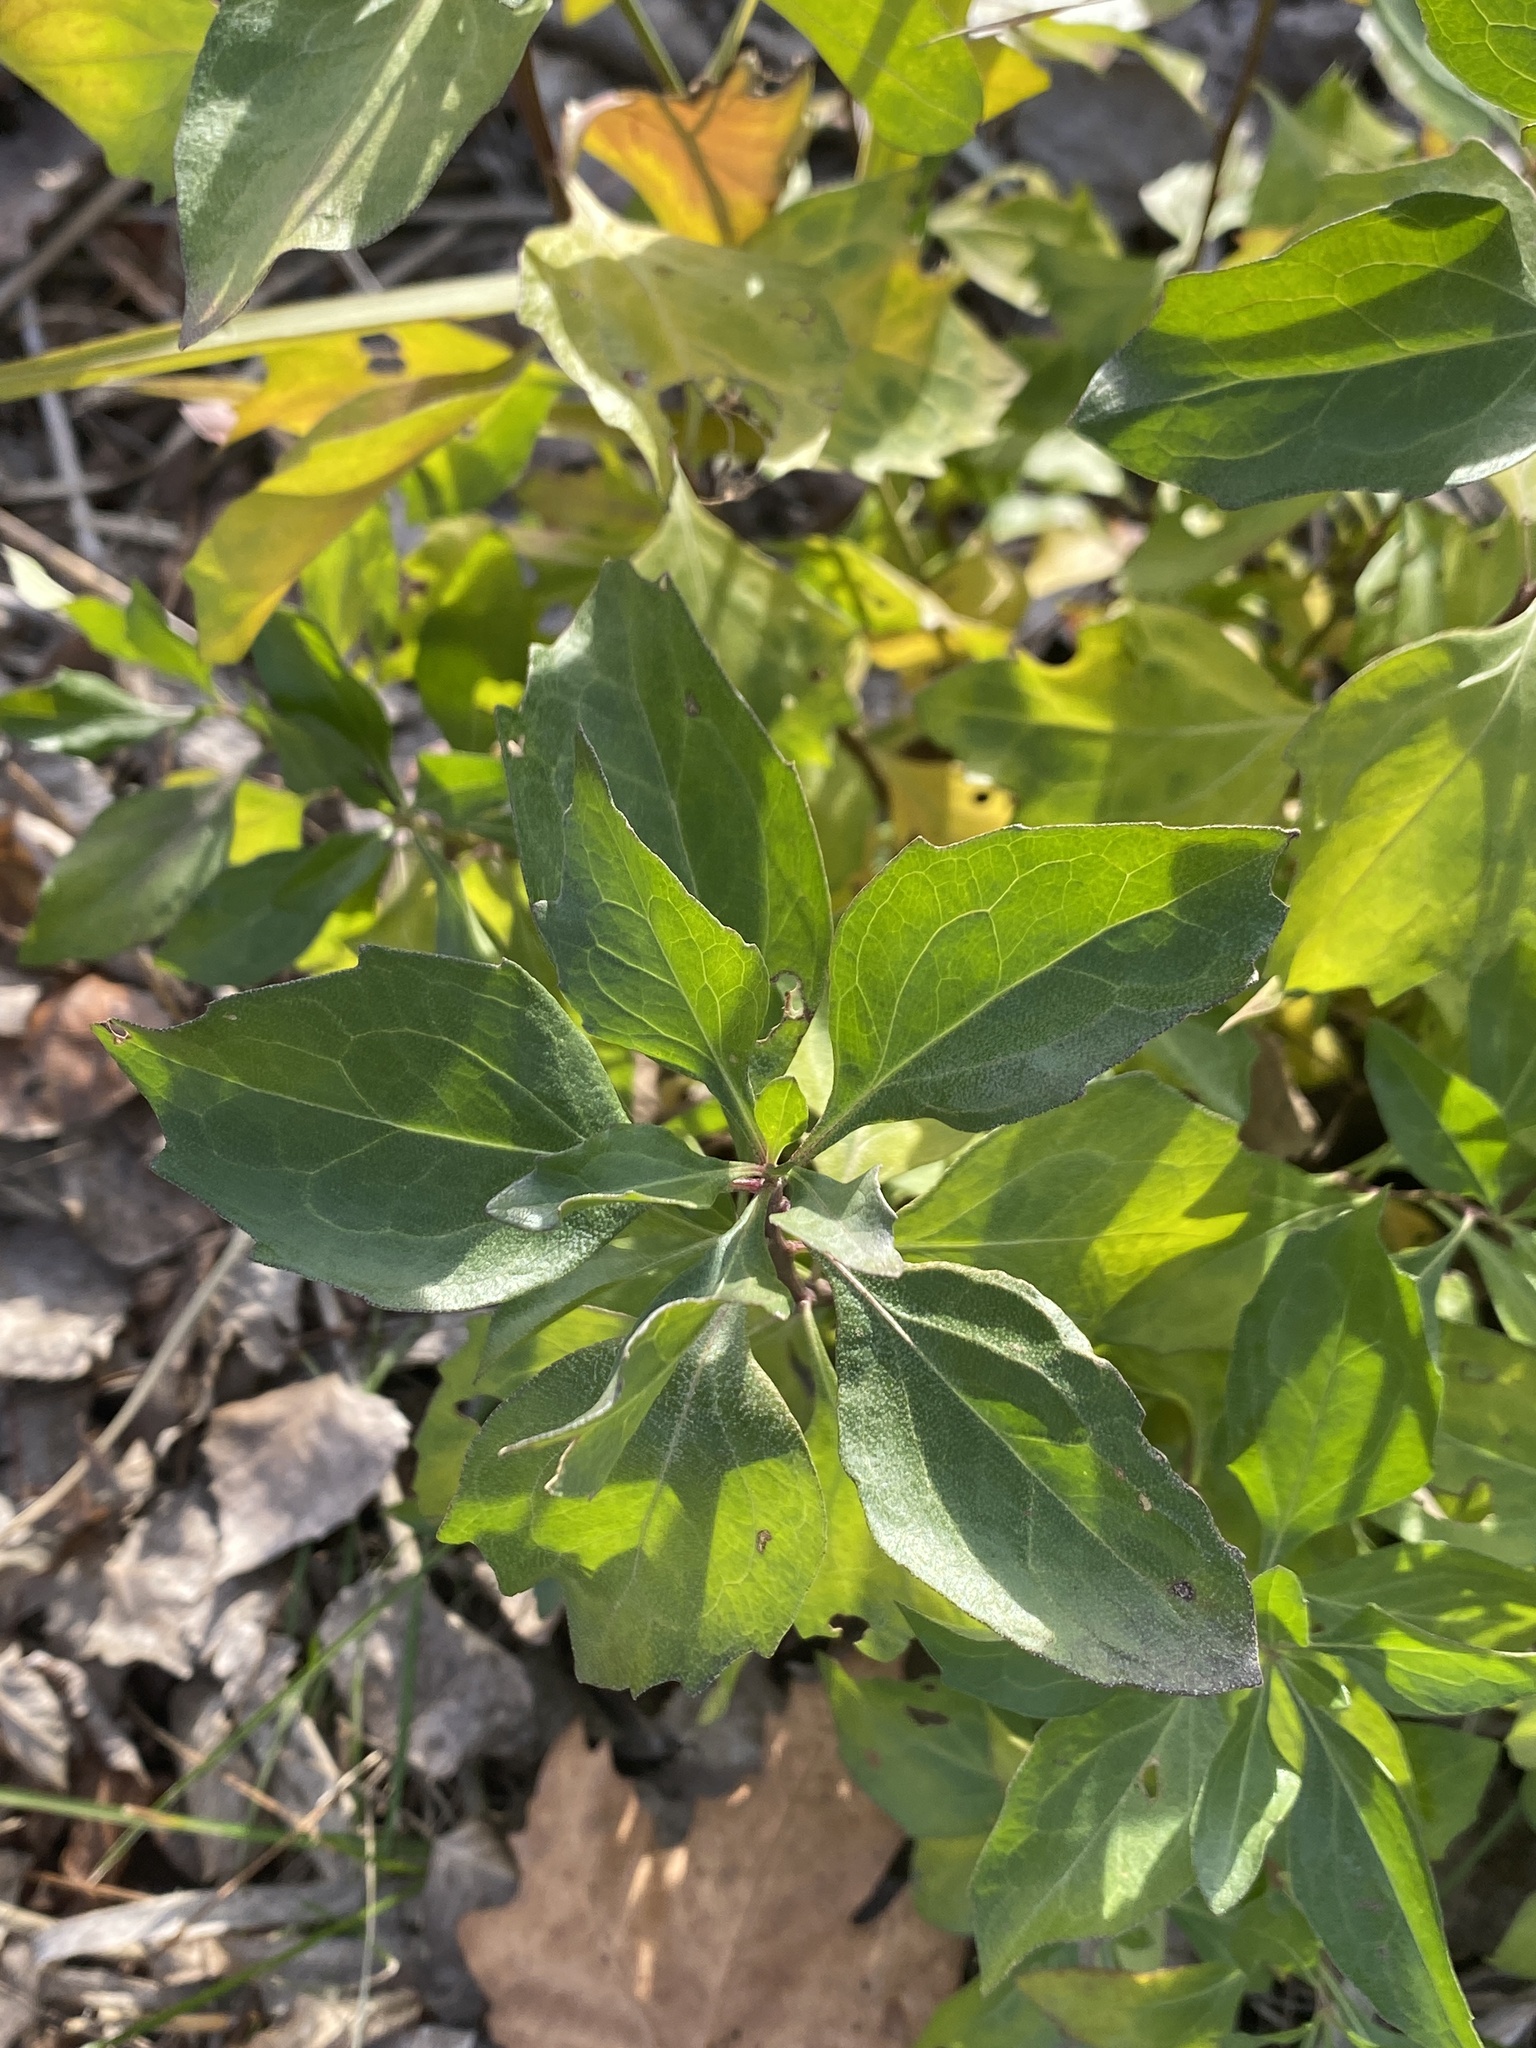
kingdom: Plantae
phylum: Tracheophyta
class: Magnoliopsida
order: Asterales
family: Asteraceae
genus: Baccharis
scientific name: Baccharis halimifolia
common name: Eastern baccharis
